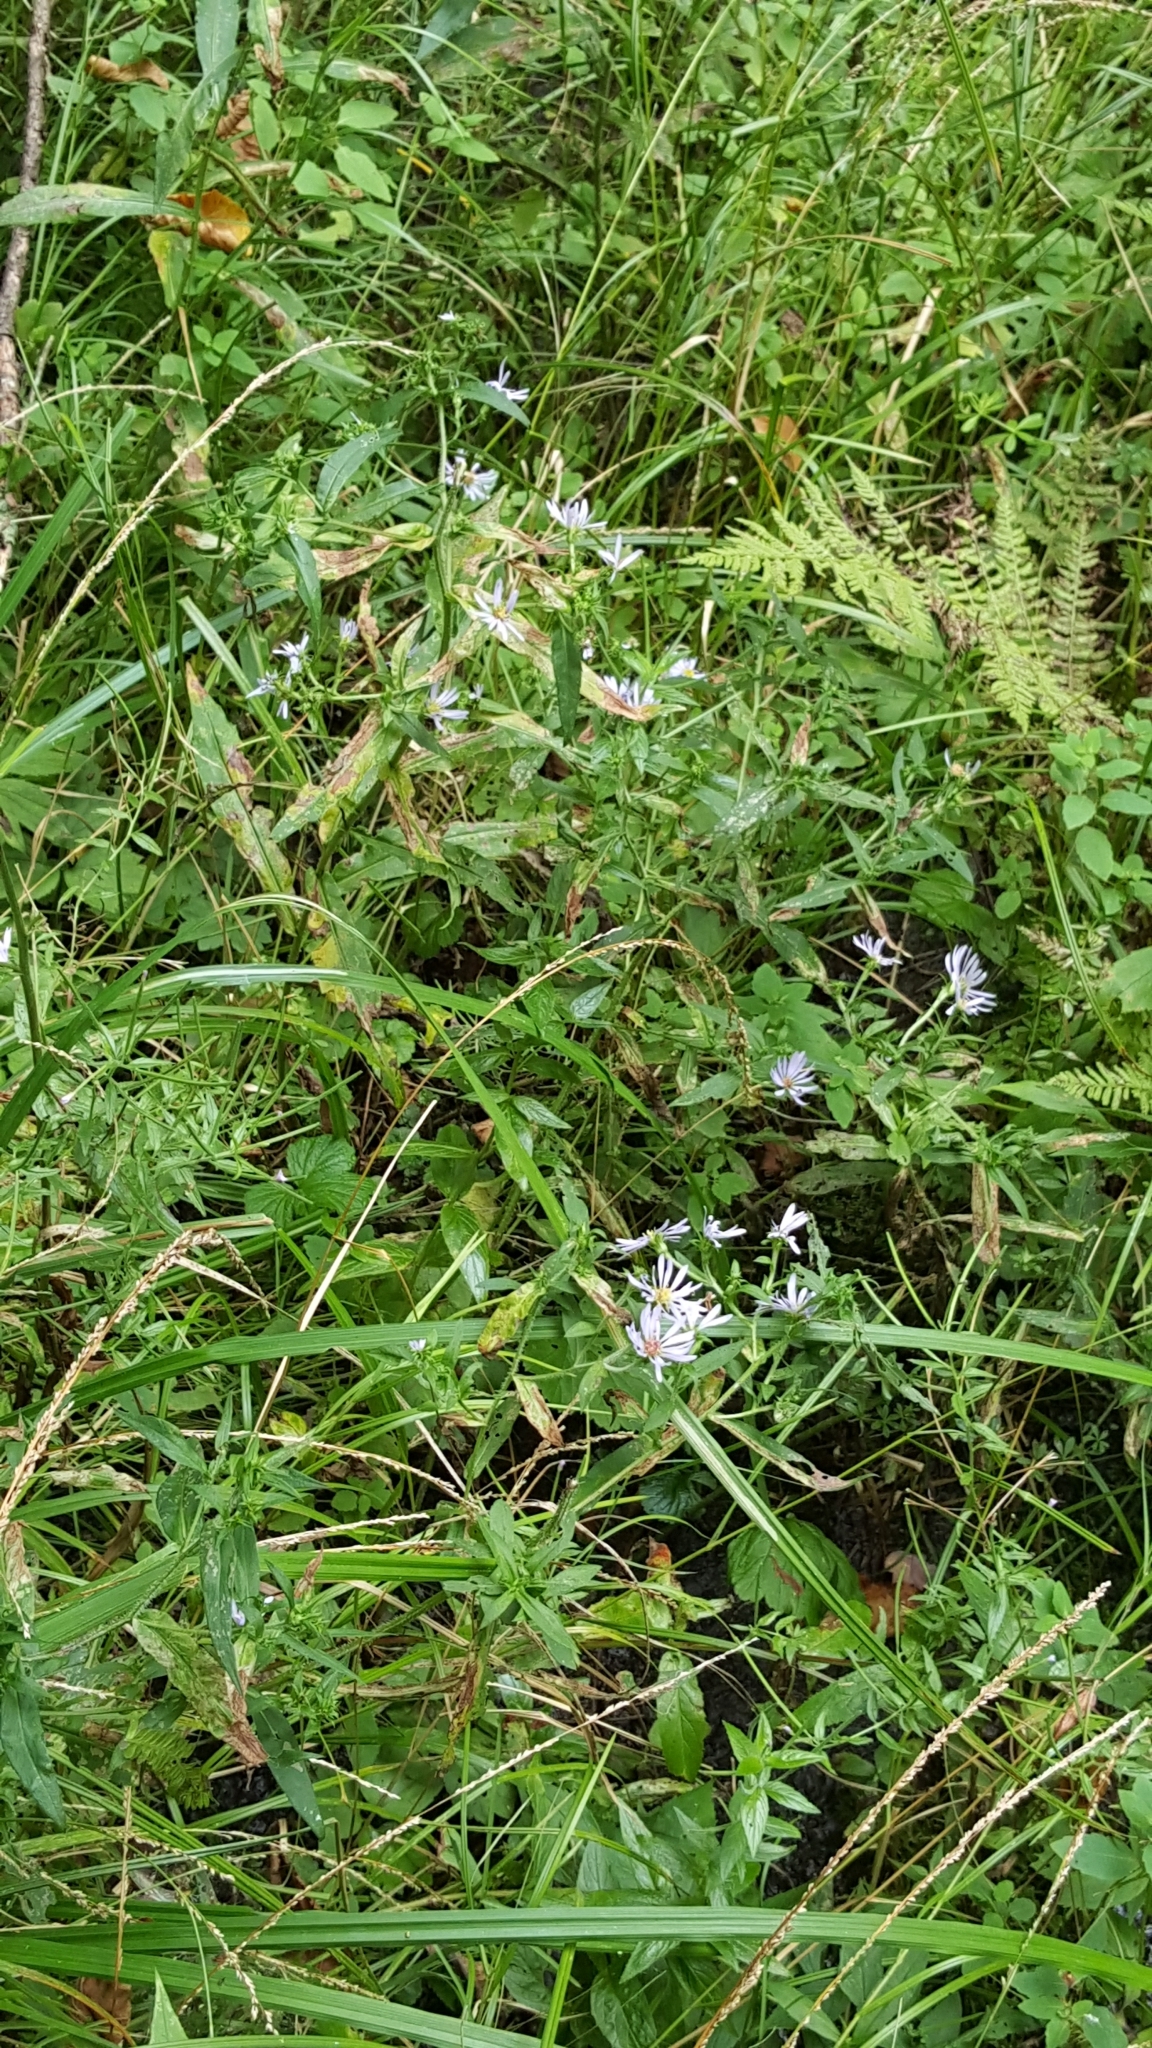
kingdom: Plantae
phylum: Tracheophyta
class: Magnoliopsida
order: Asterales
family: Asteraceae
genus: Symphyotrichum
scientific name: Symphyotrichum puniceum
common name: Bog aster
